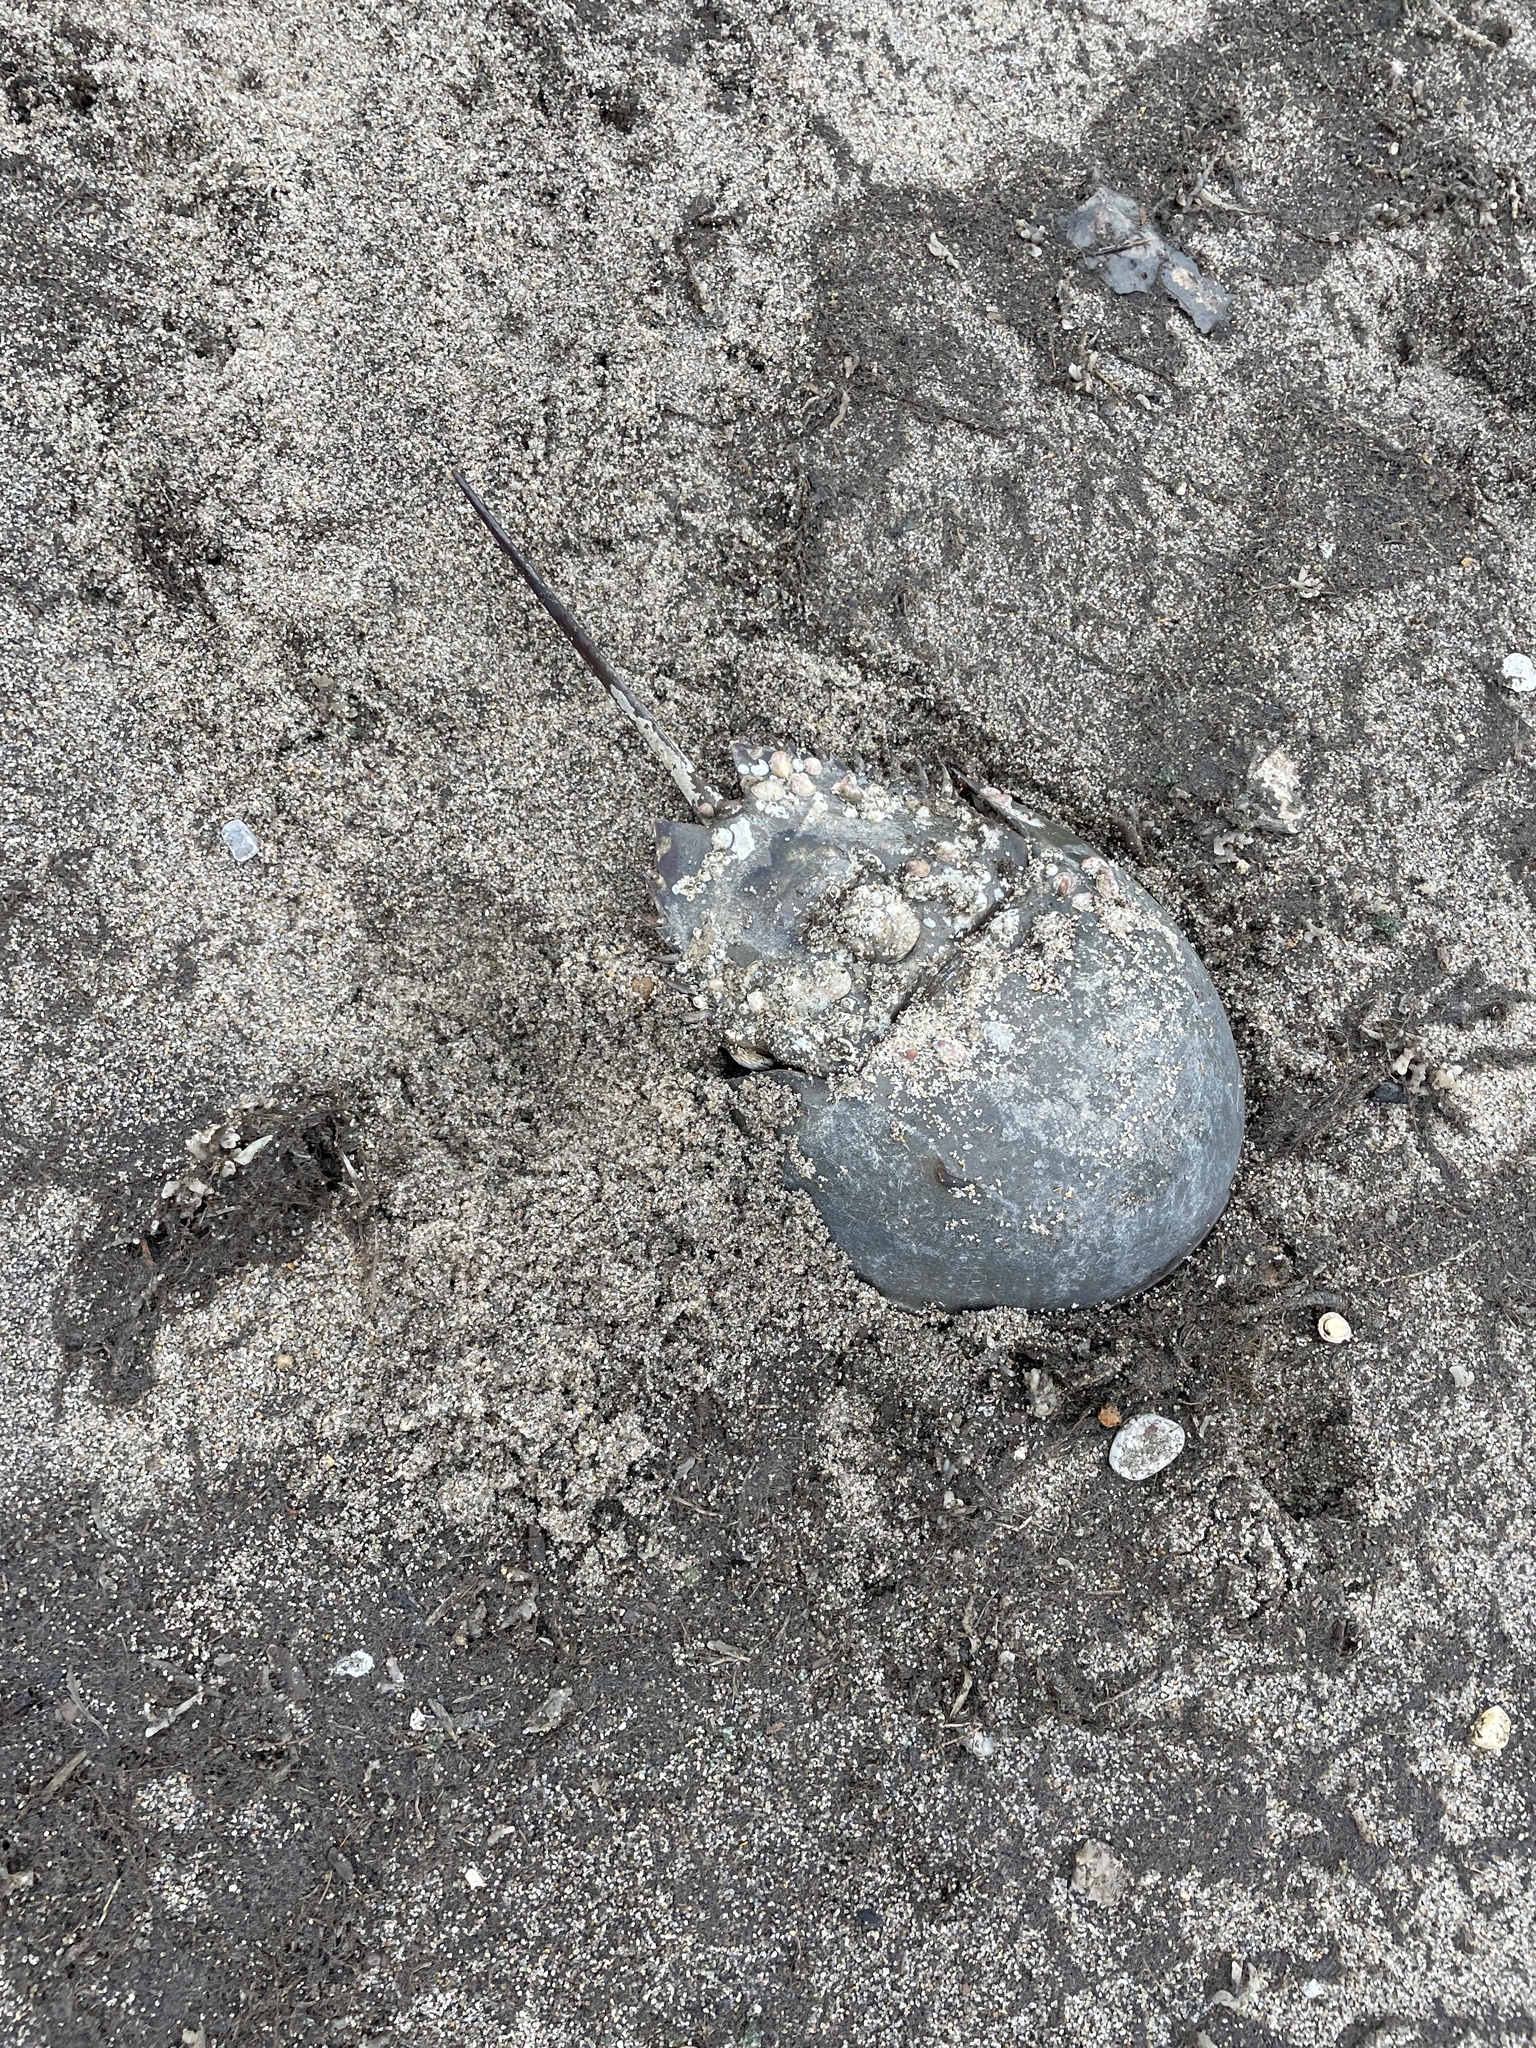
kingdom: Animalia
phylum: Arthropoda
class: Merostomata
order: Xiphosurida
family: Limulidae
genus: Limulus
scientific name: Limulus polyphemus
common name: Horseshoe crab
